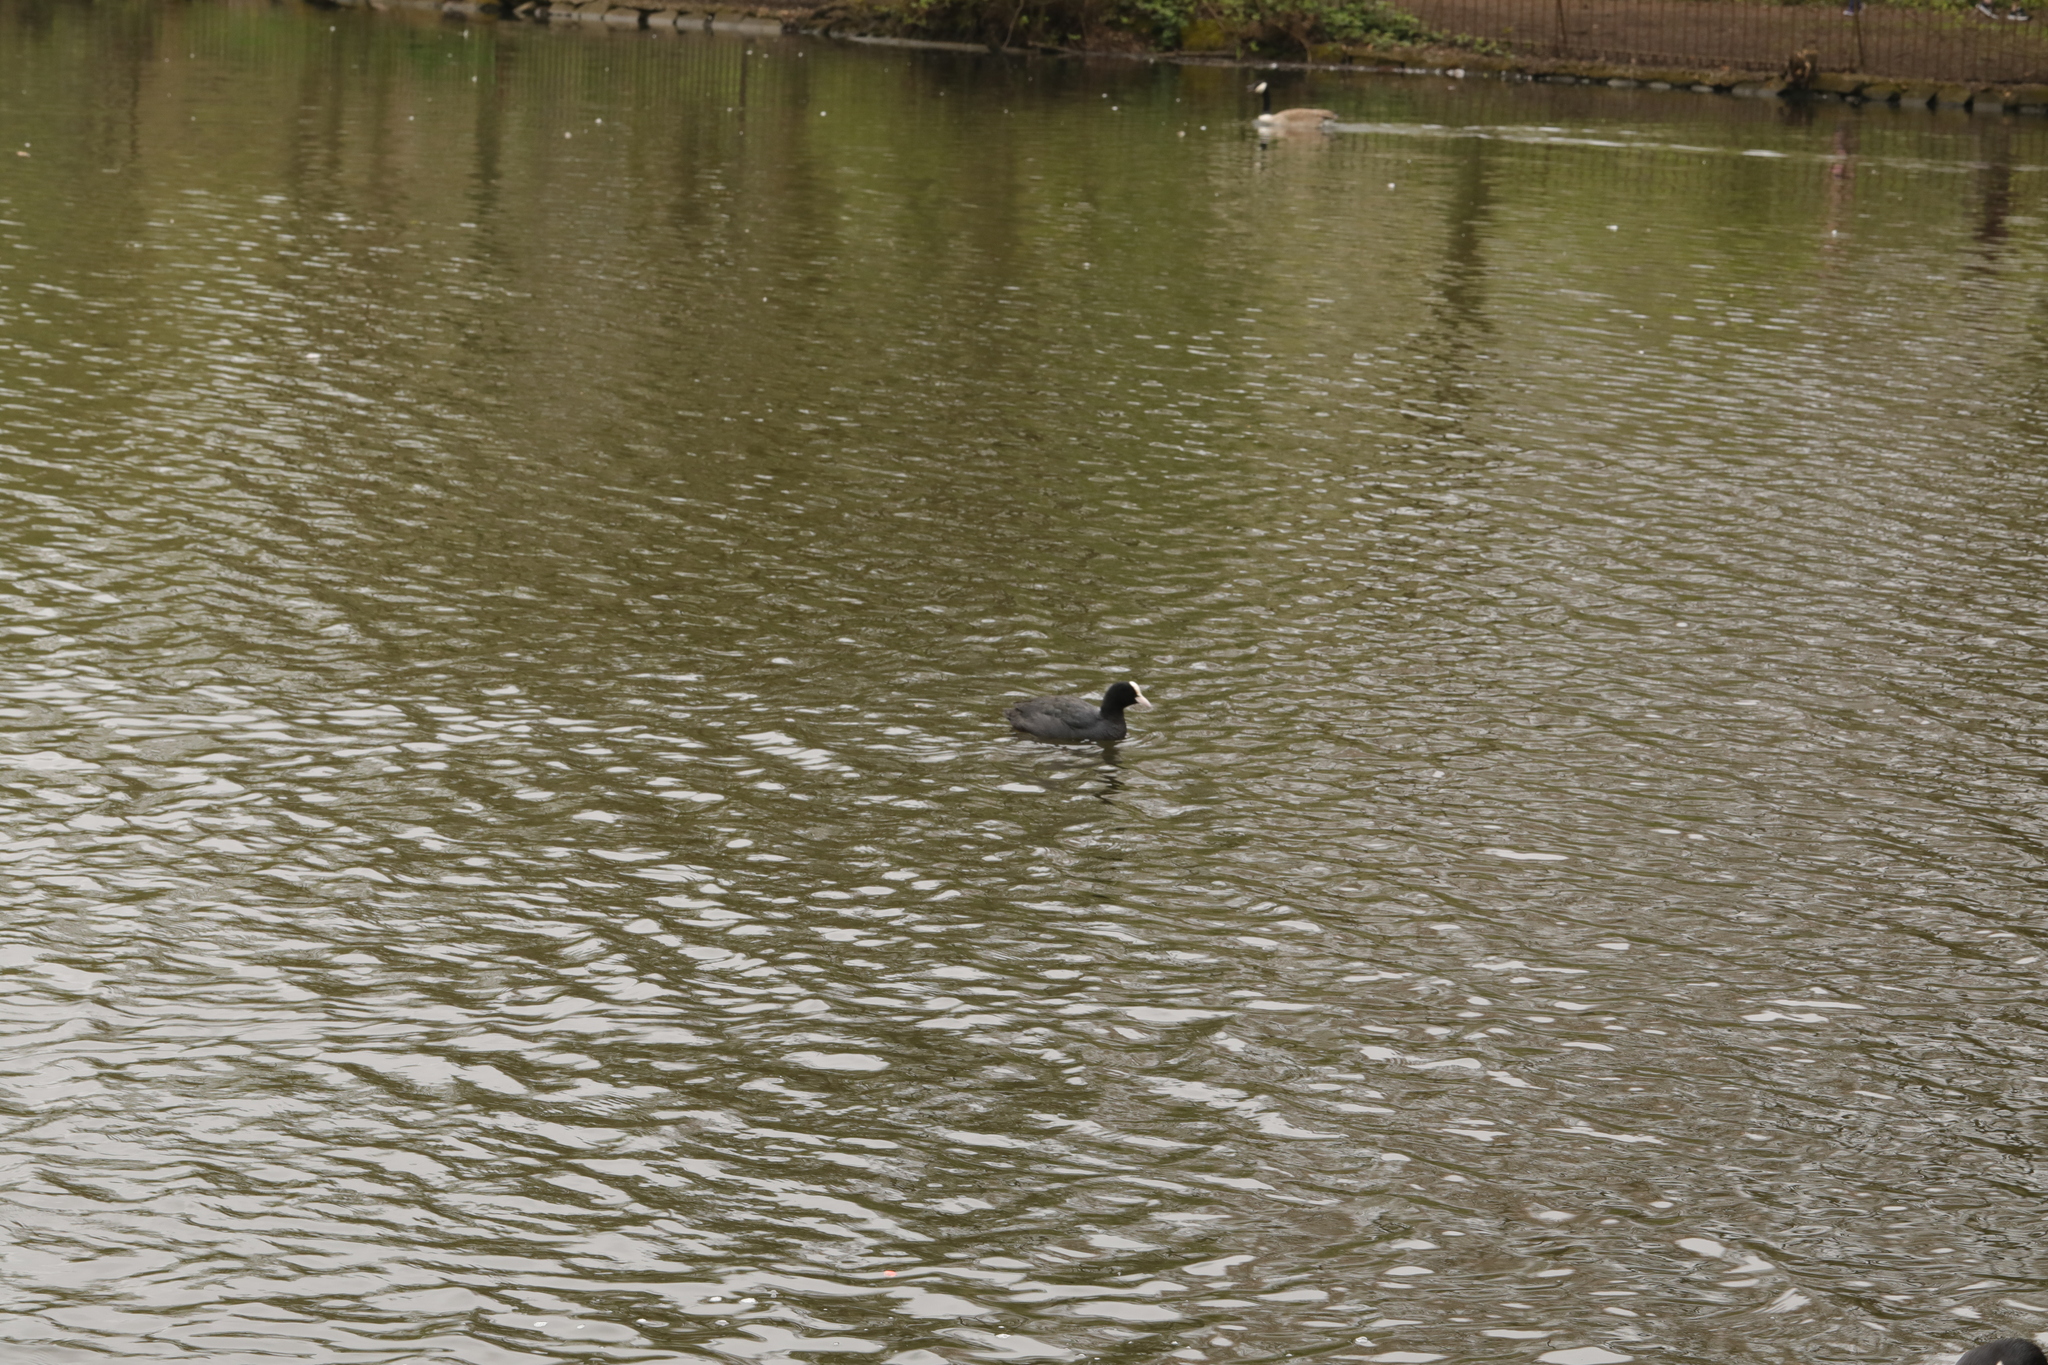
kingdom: Animalia
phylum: Chordata
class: Aves
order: Gruiformes
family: Rallidae
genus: Fulica
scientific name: Fulica atra
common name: Eurasian coot
